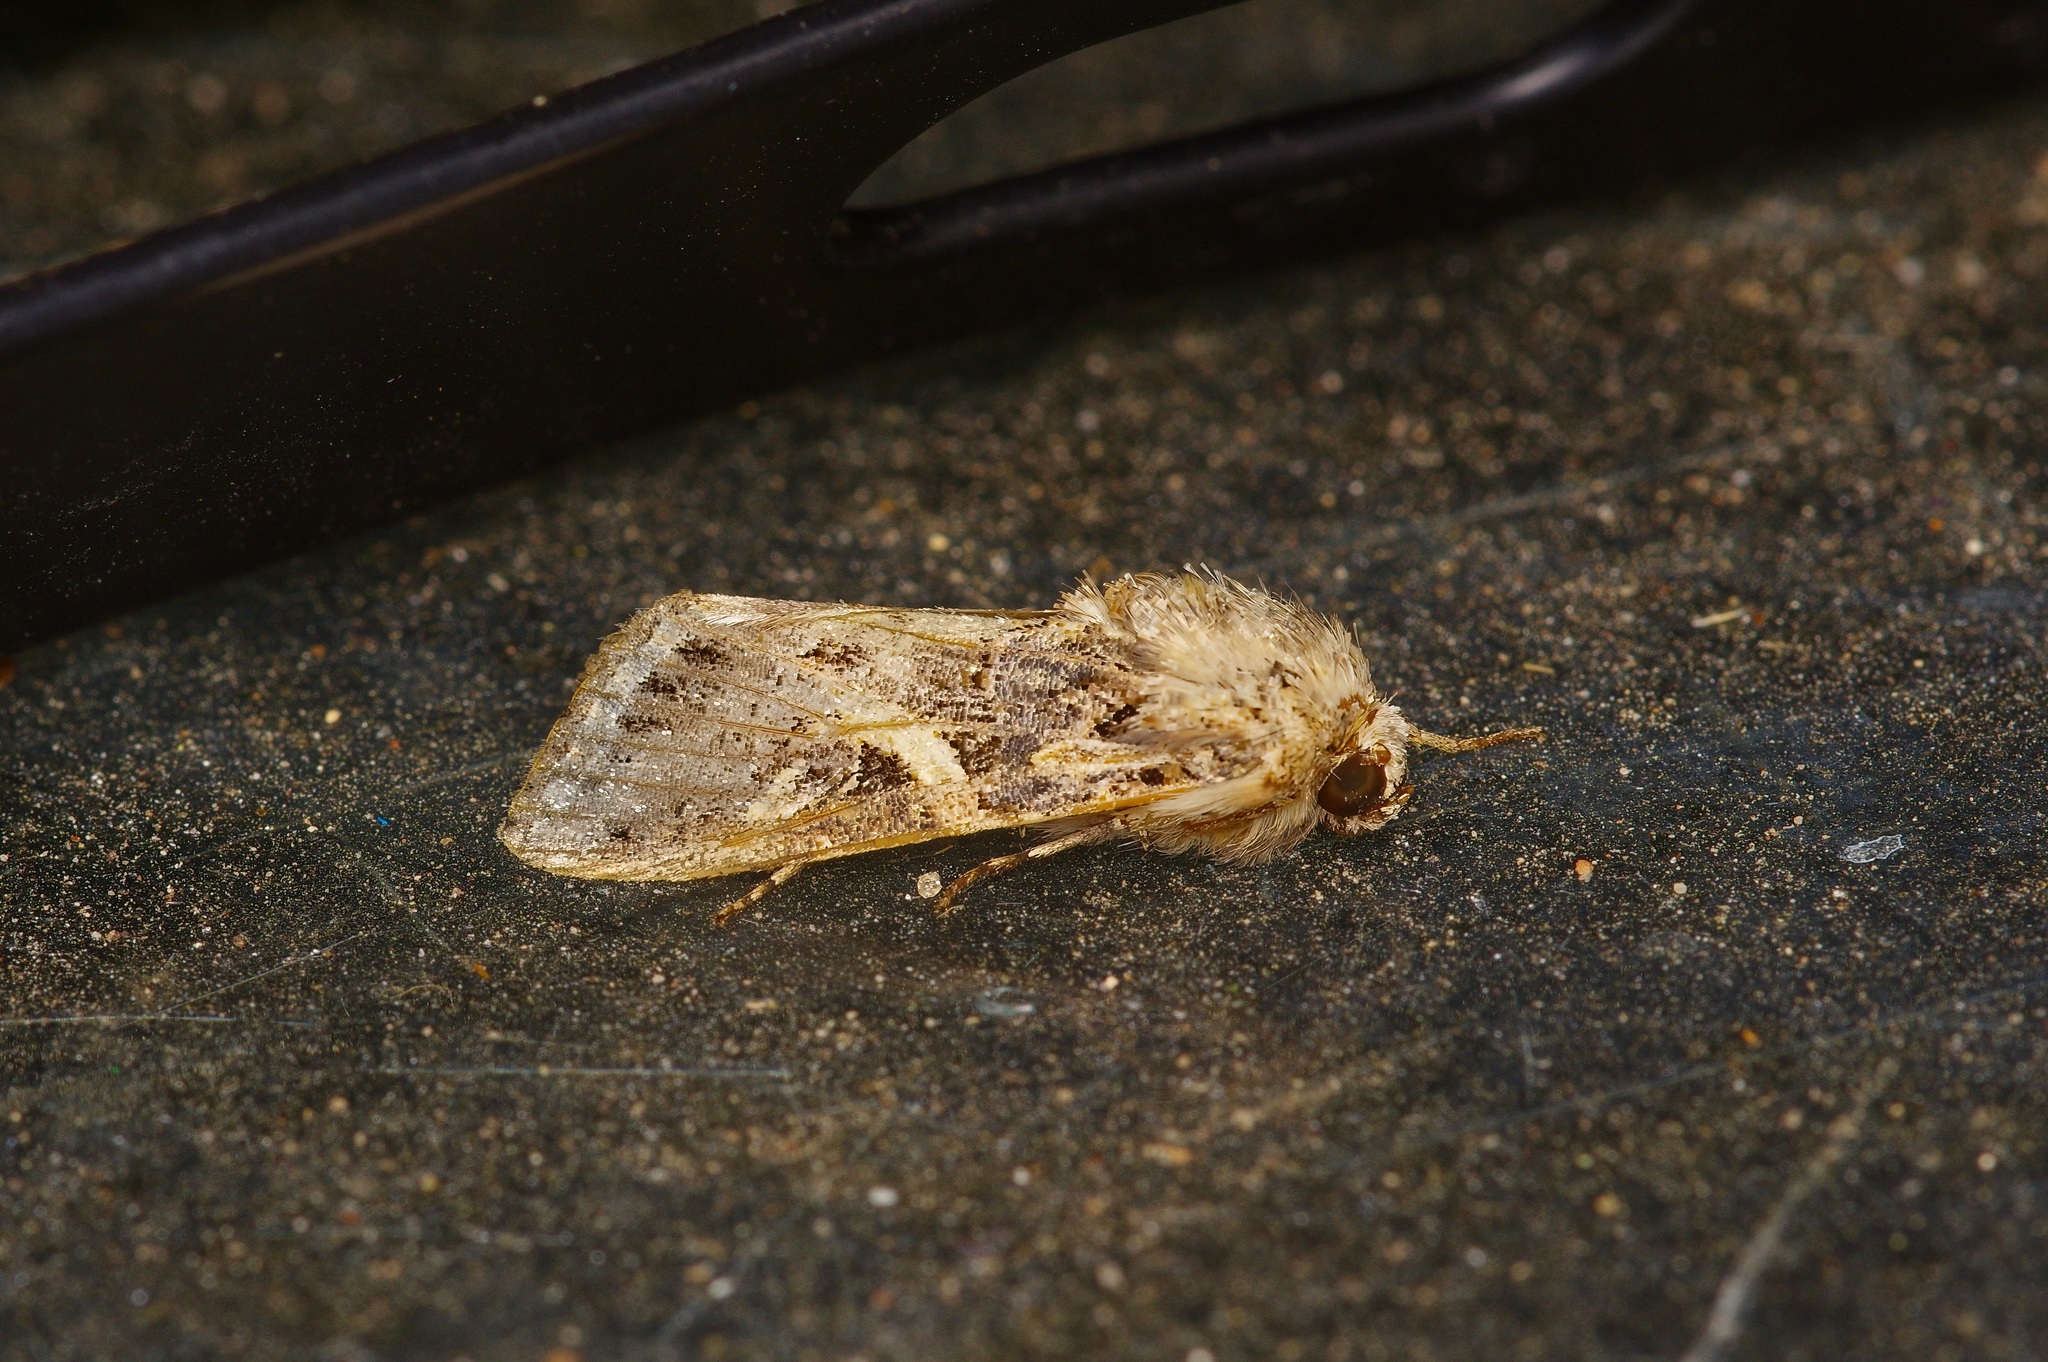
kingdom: Animalia
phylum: Arthropoda
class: Insecta
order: Lepidoptera
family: Noctuidae
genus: Spodoptera
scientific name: Spodoptera ornithogalli
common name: Yellow-striped armyworm
